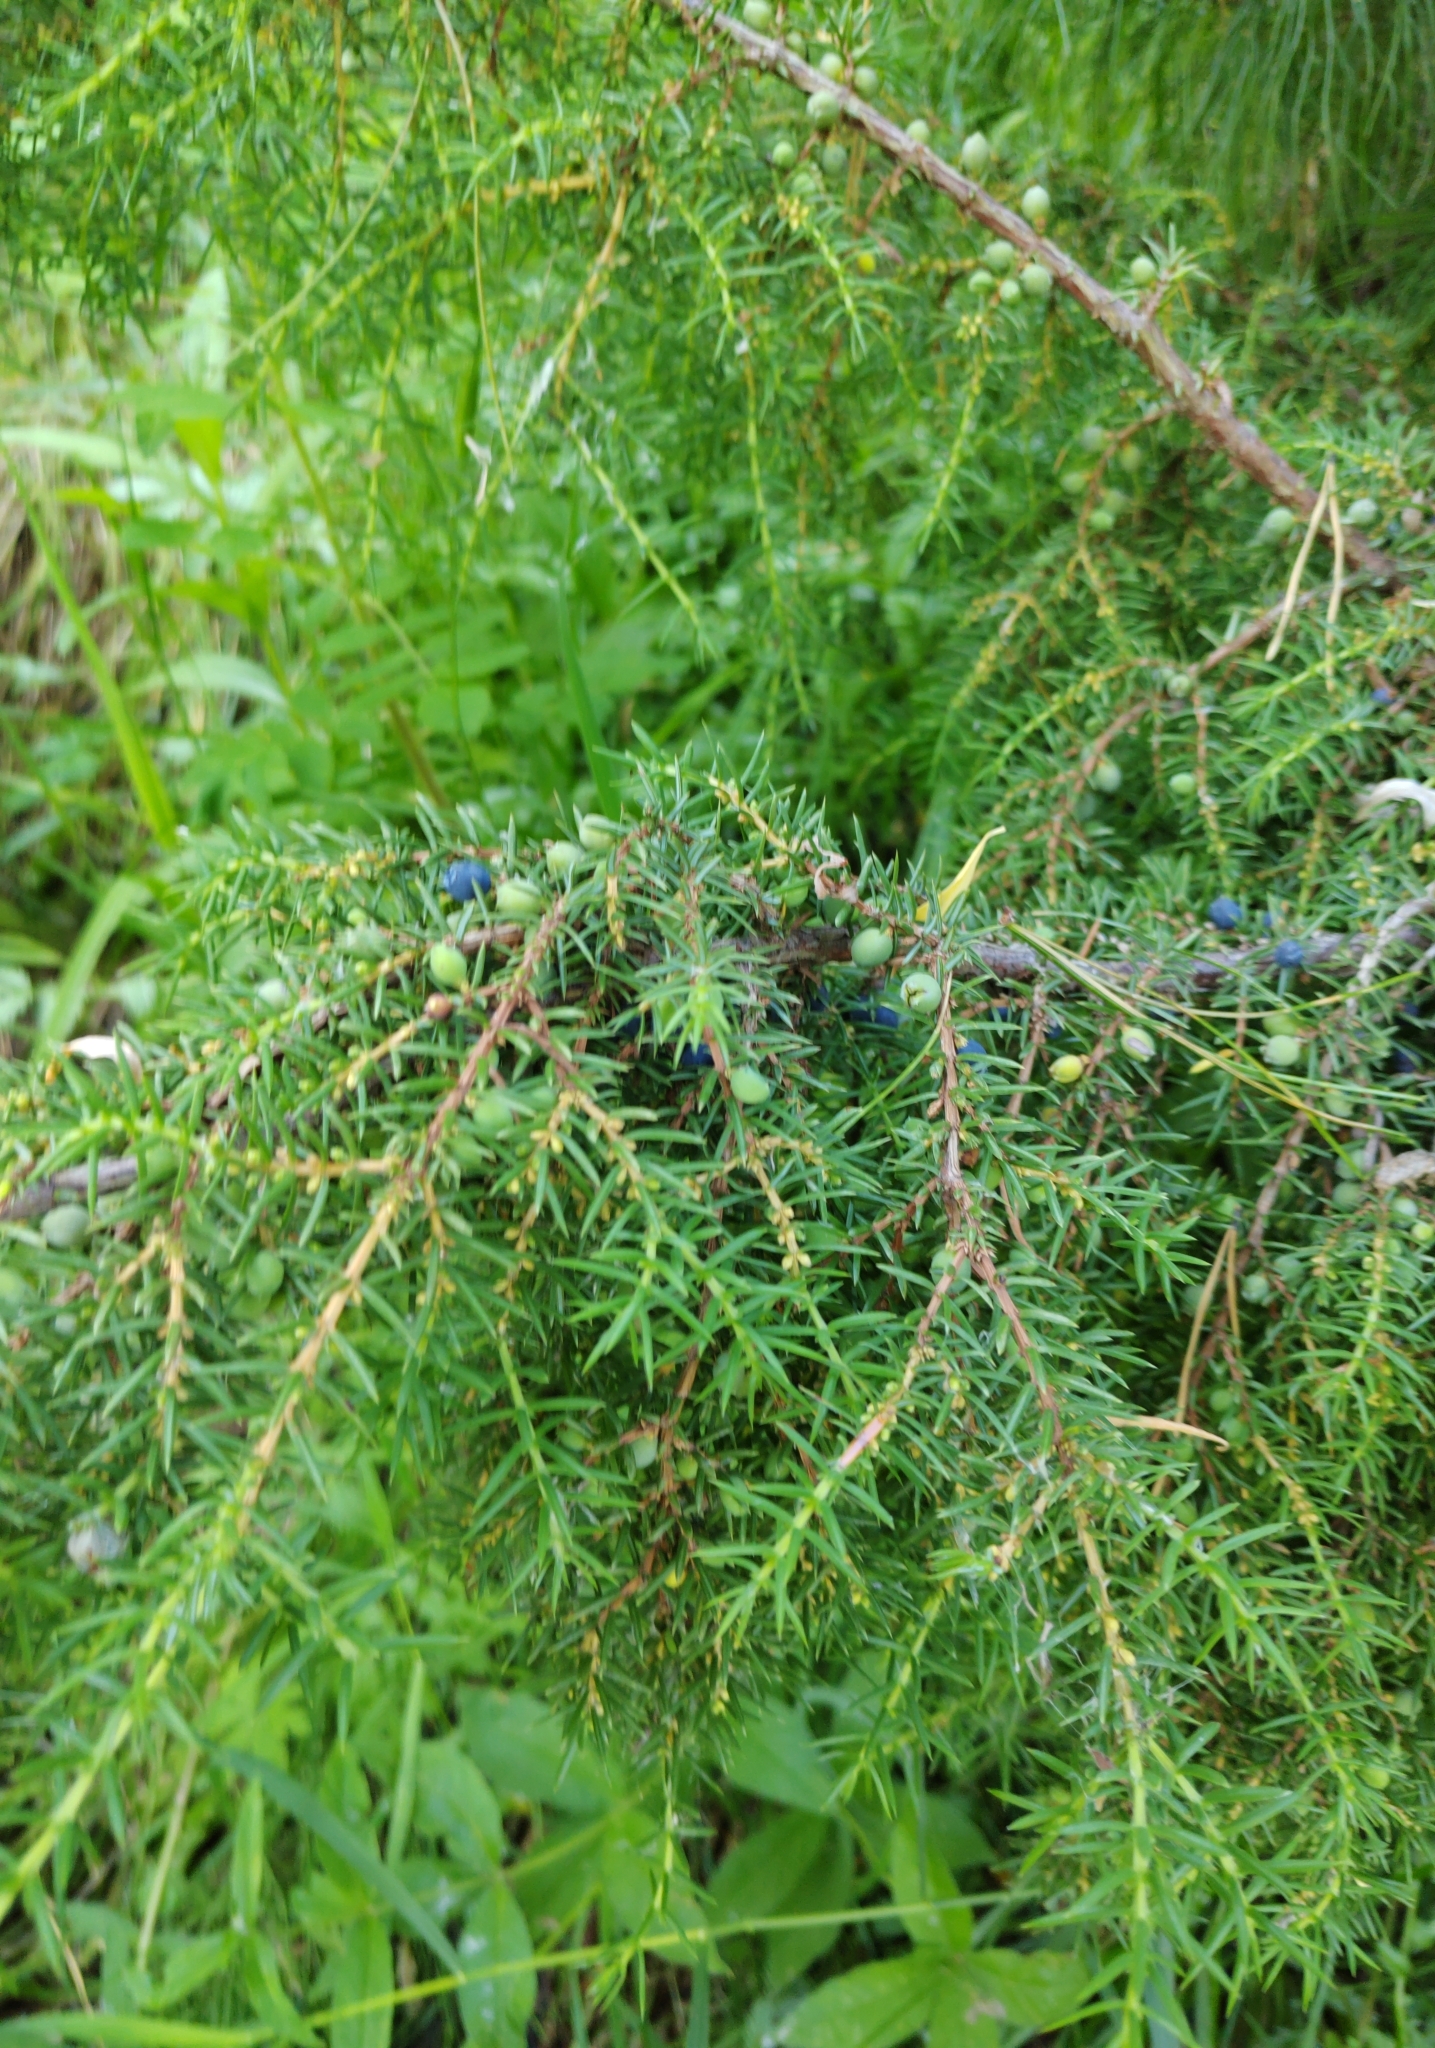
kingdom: Plantae
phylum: Tracheophyta
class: Pinopsida
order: Pinales
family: Cupressaceae
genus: Juniperus
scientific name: Juniperus communis
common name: Common juniper
